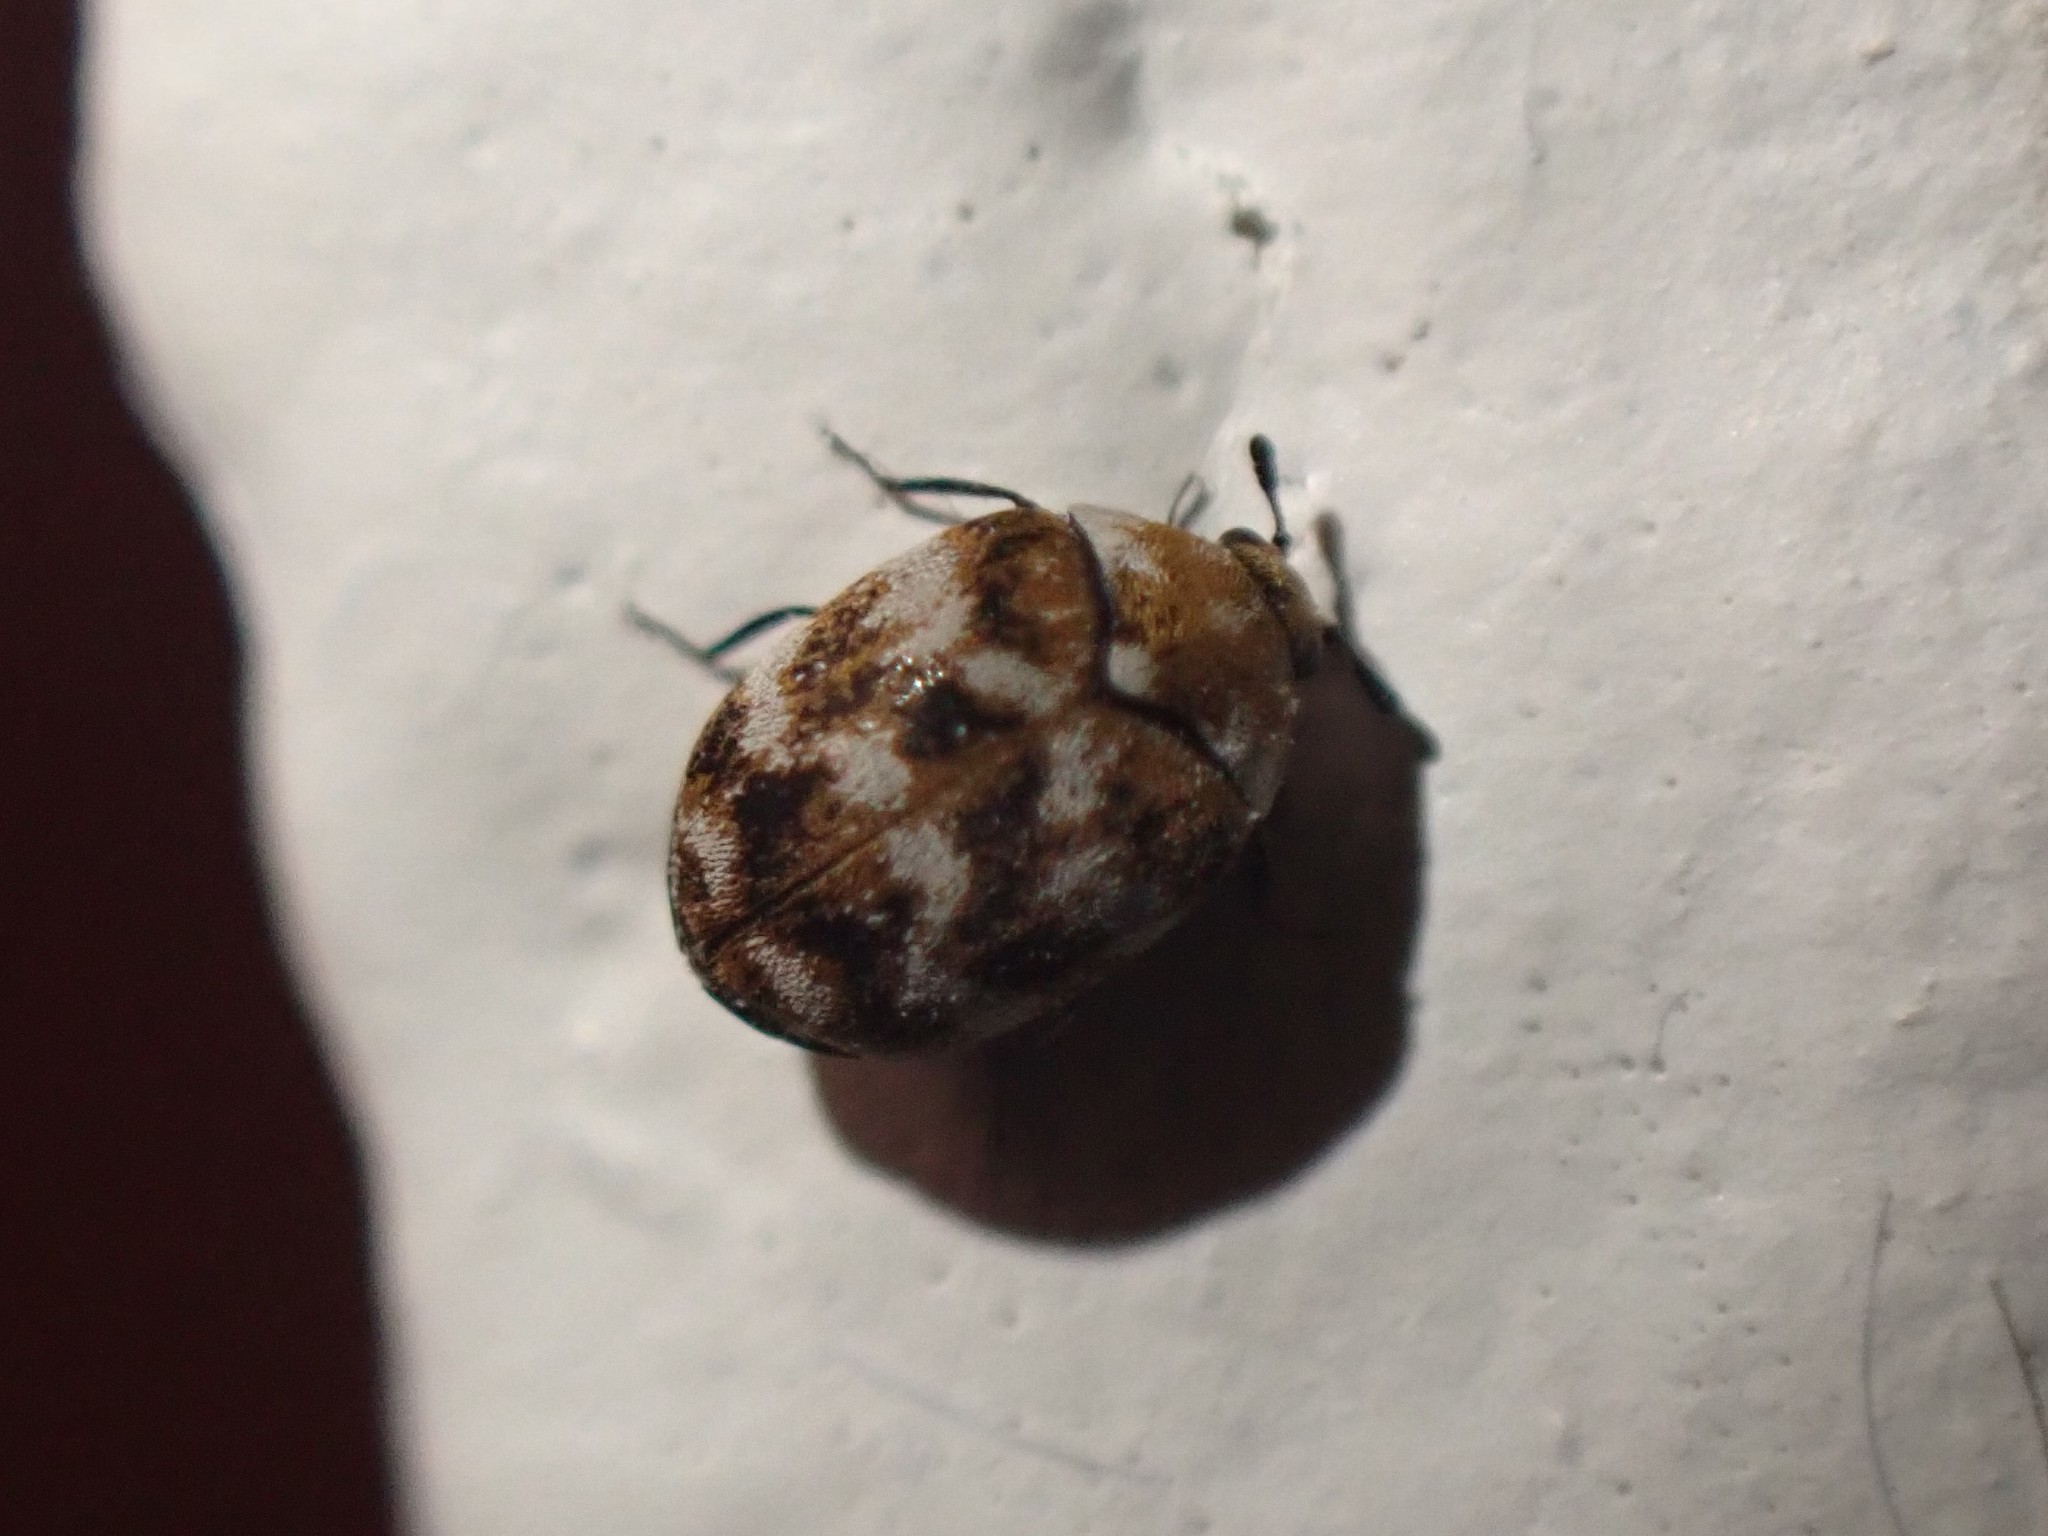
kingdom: Animalia
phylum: Arthropoda
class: Insecta
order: Coleoptera
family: Dermestidae
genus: Anthrenus
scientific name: Anthrenus verbasci
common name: Varied carpet beetle
